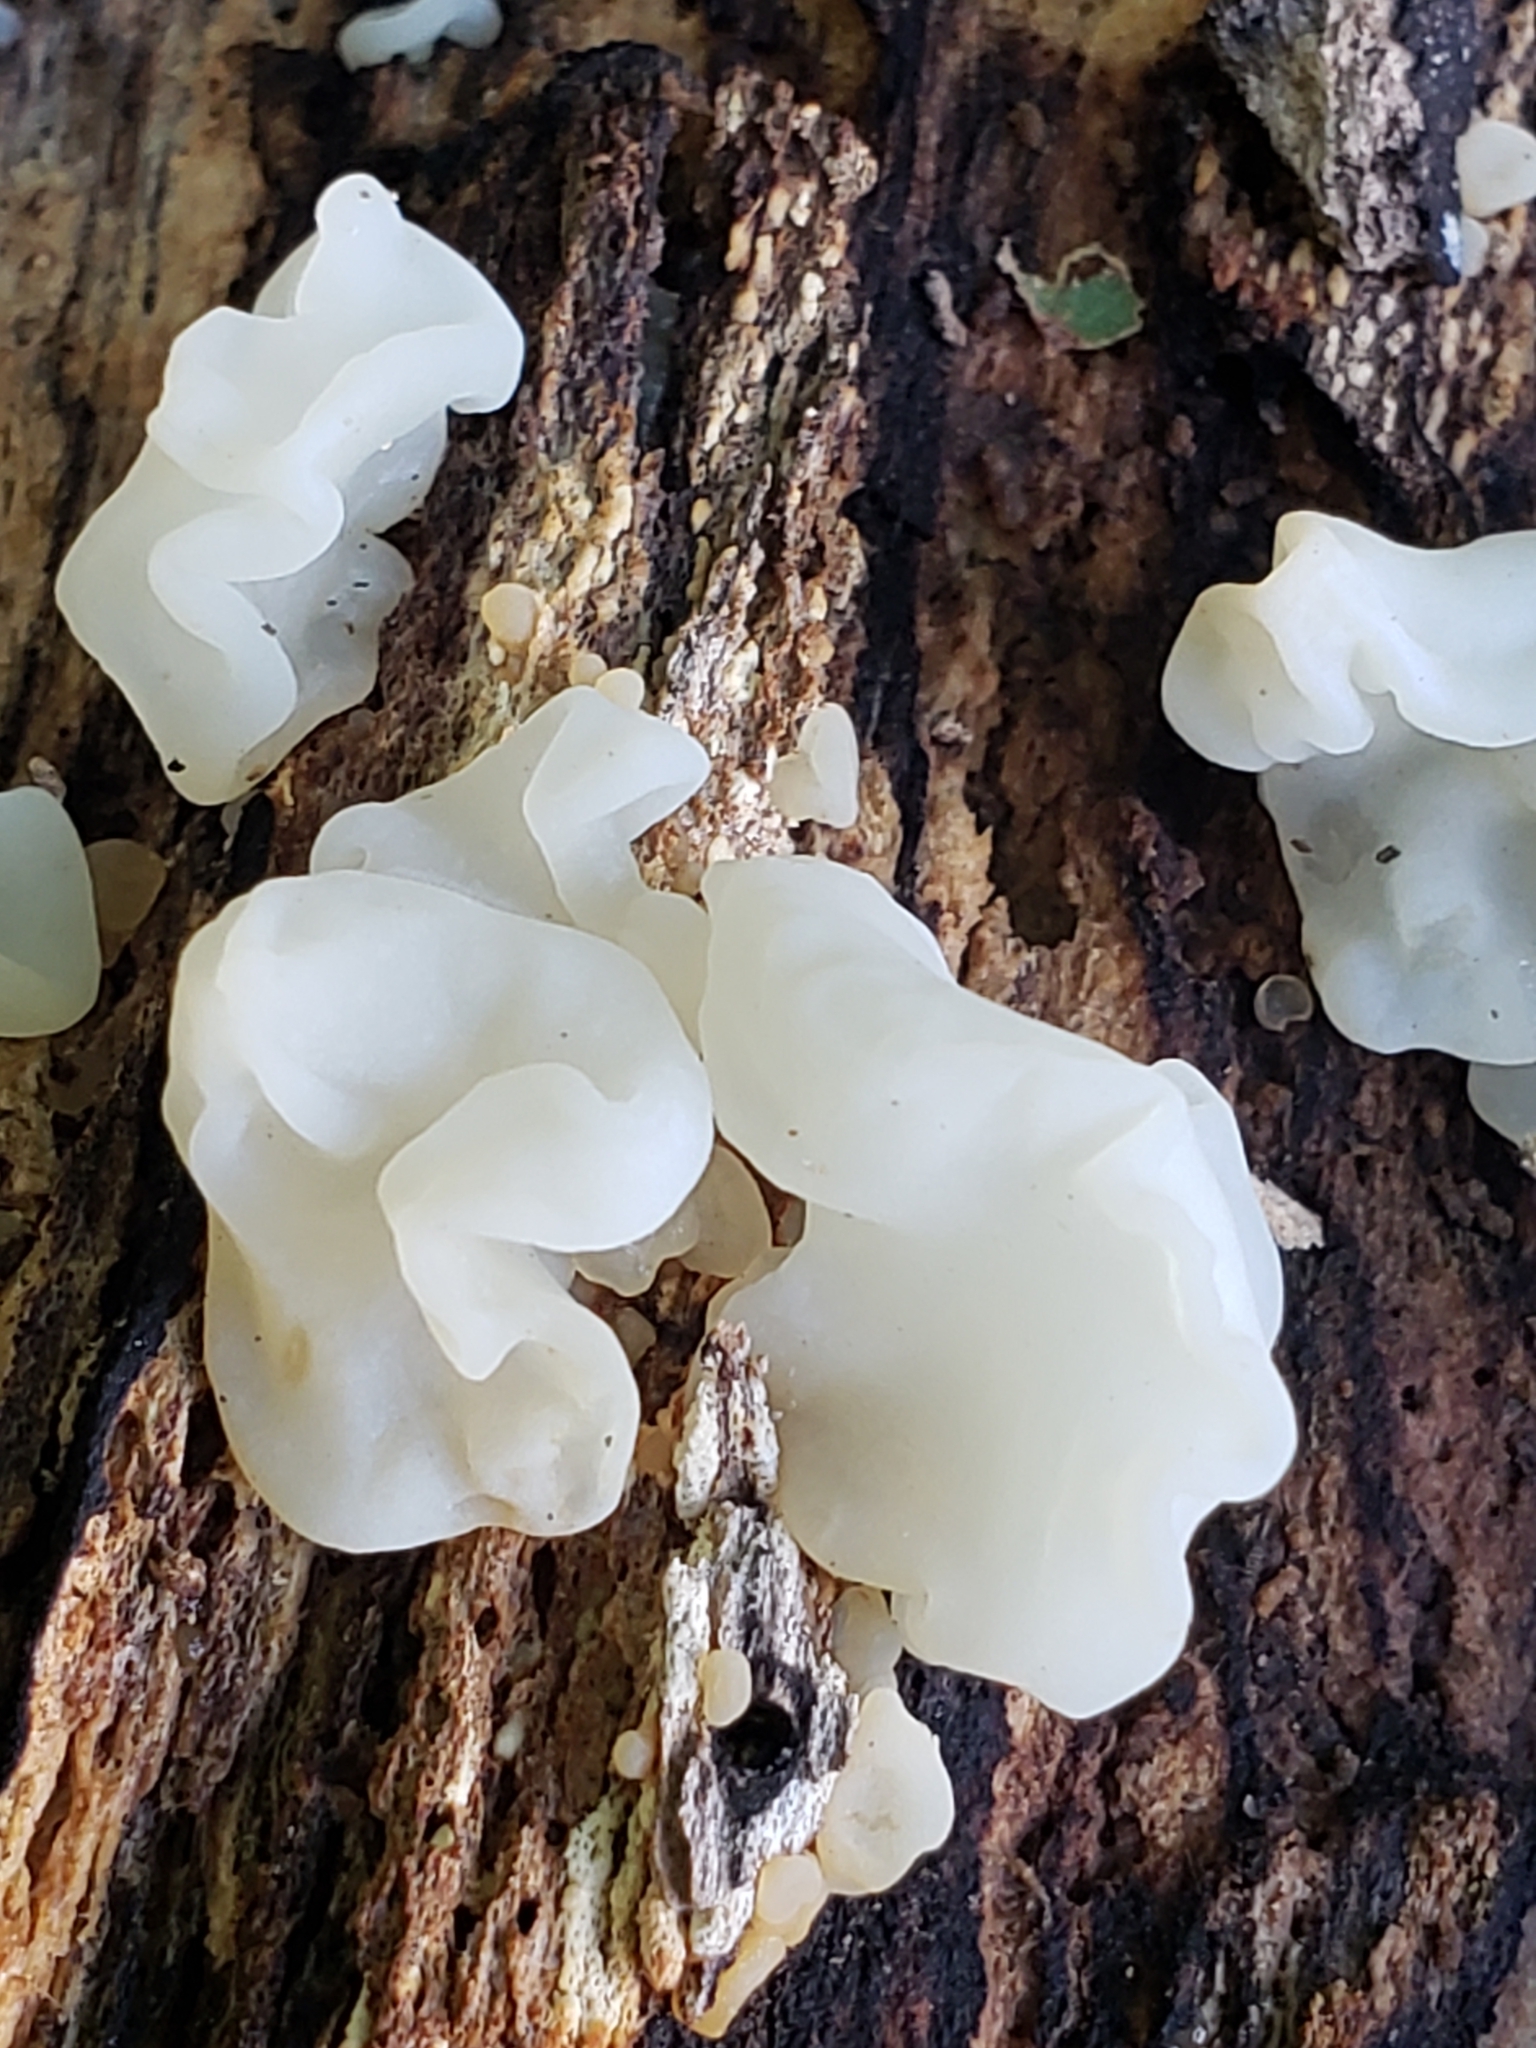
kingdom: Fungi
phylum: Basidiomycota
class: Agaricomycetes
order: Auriculariales
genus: Ductifera
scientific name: Ductifera pululahuana
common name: White jelly fungus
